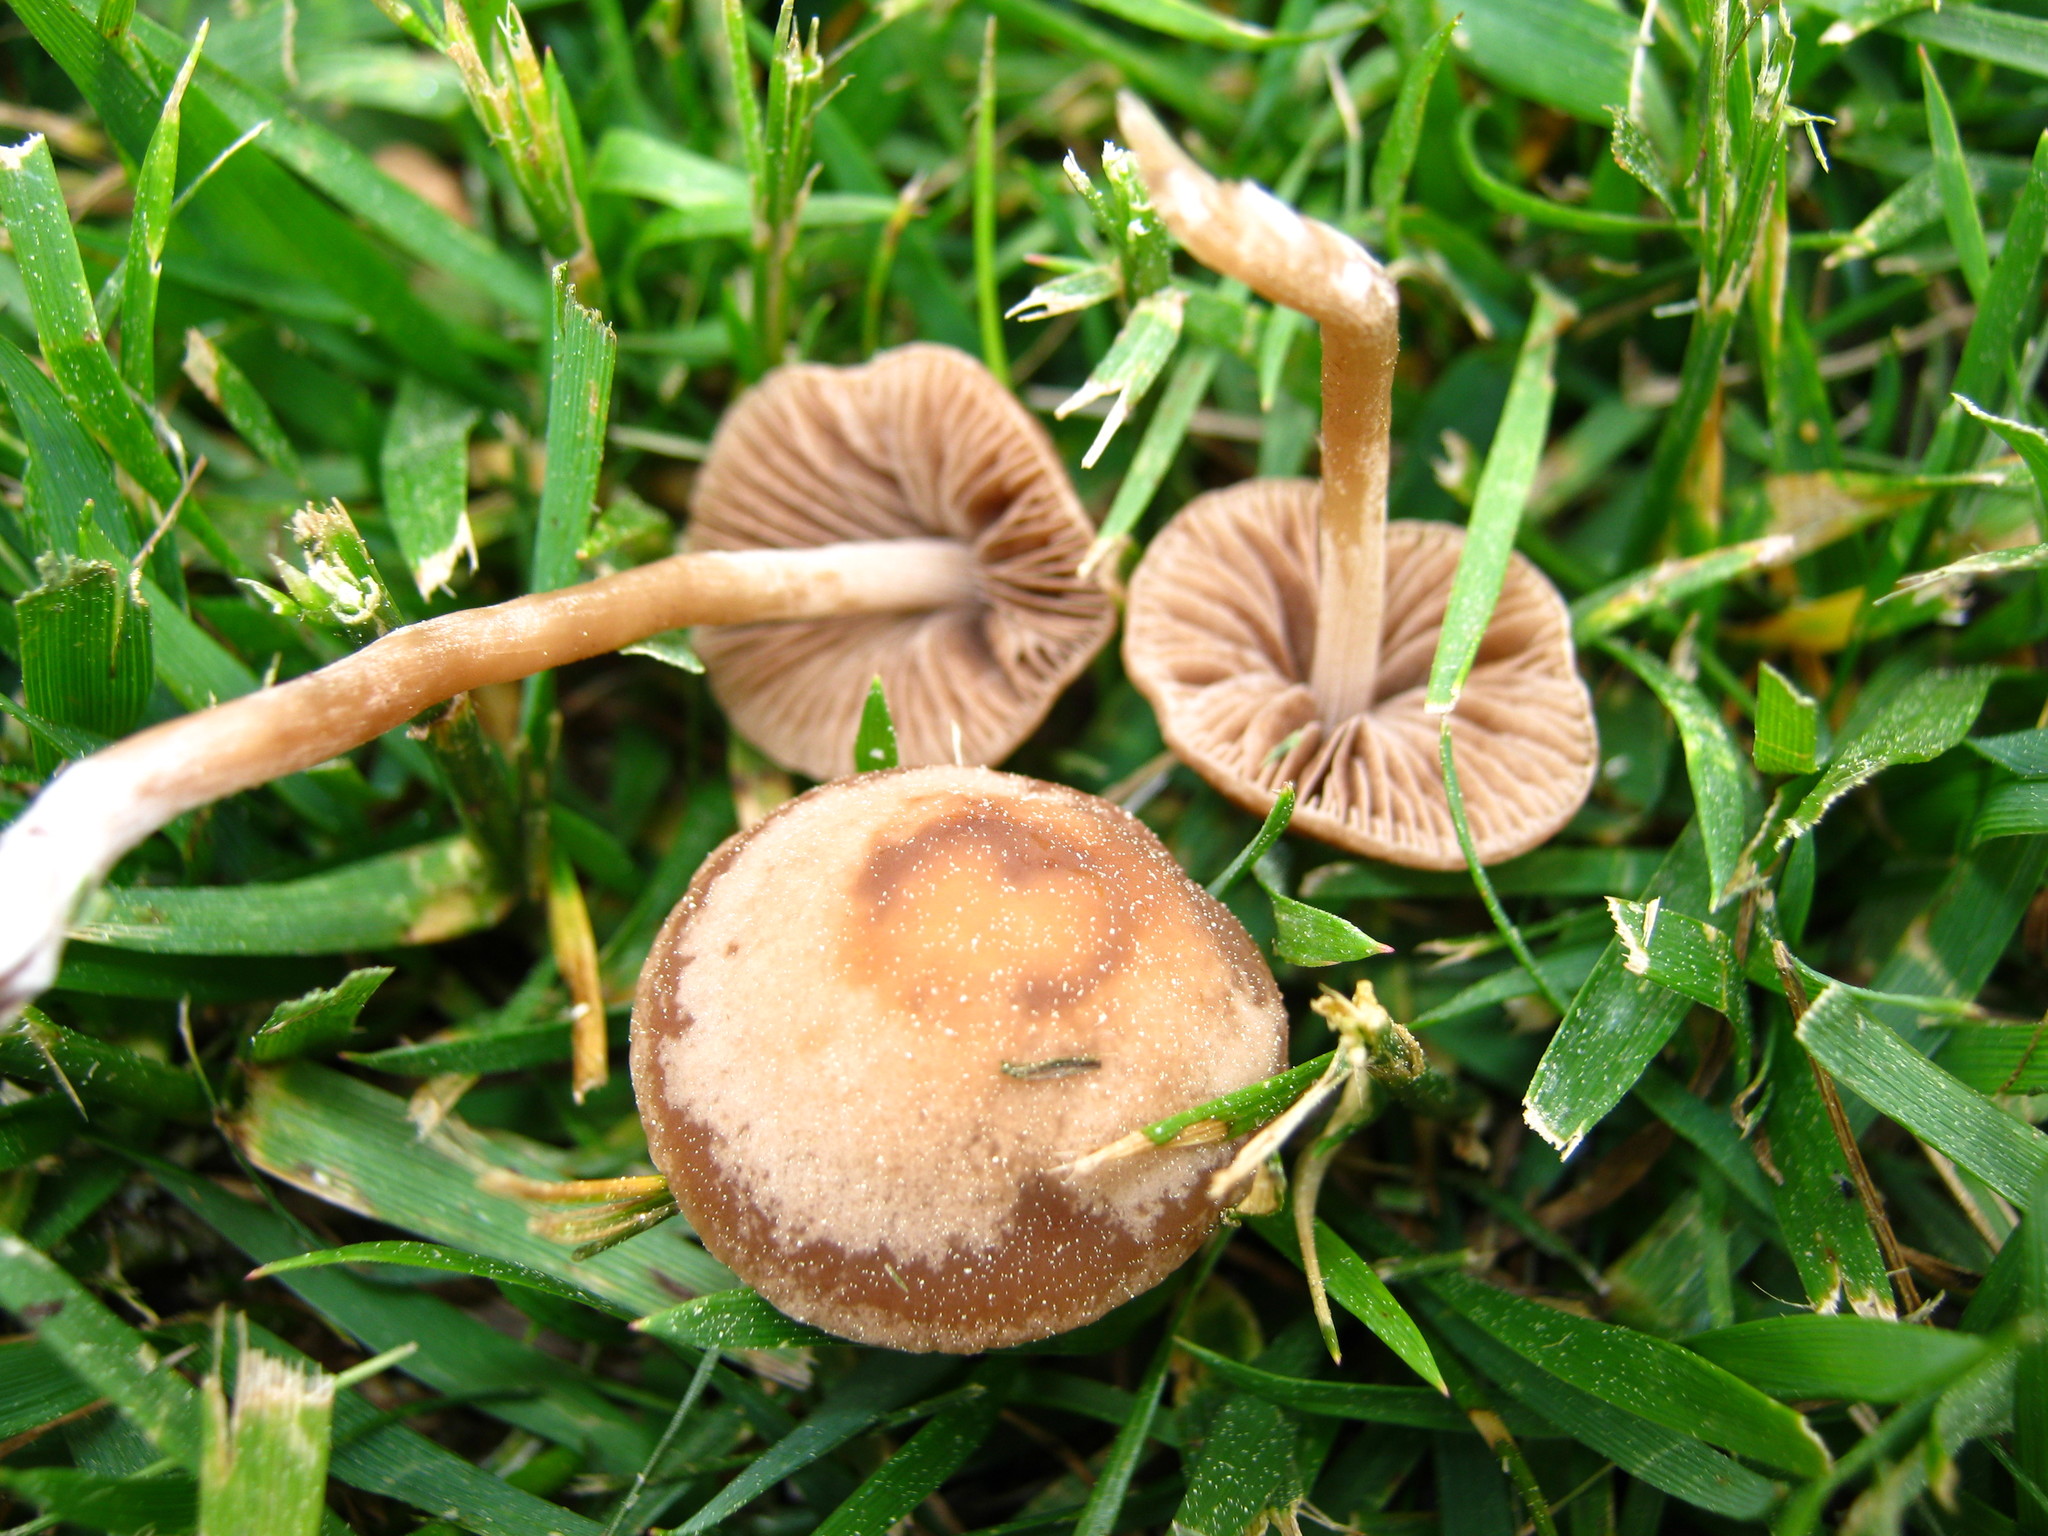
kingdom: Fungi
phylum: Basidiomycota
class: Agaricomycetes
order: Agaricales
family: Bolbitiaceae
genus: Panaeolina
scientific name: Panaeolina foenisecii
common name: Brown hay cap
